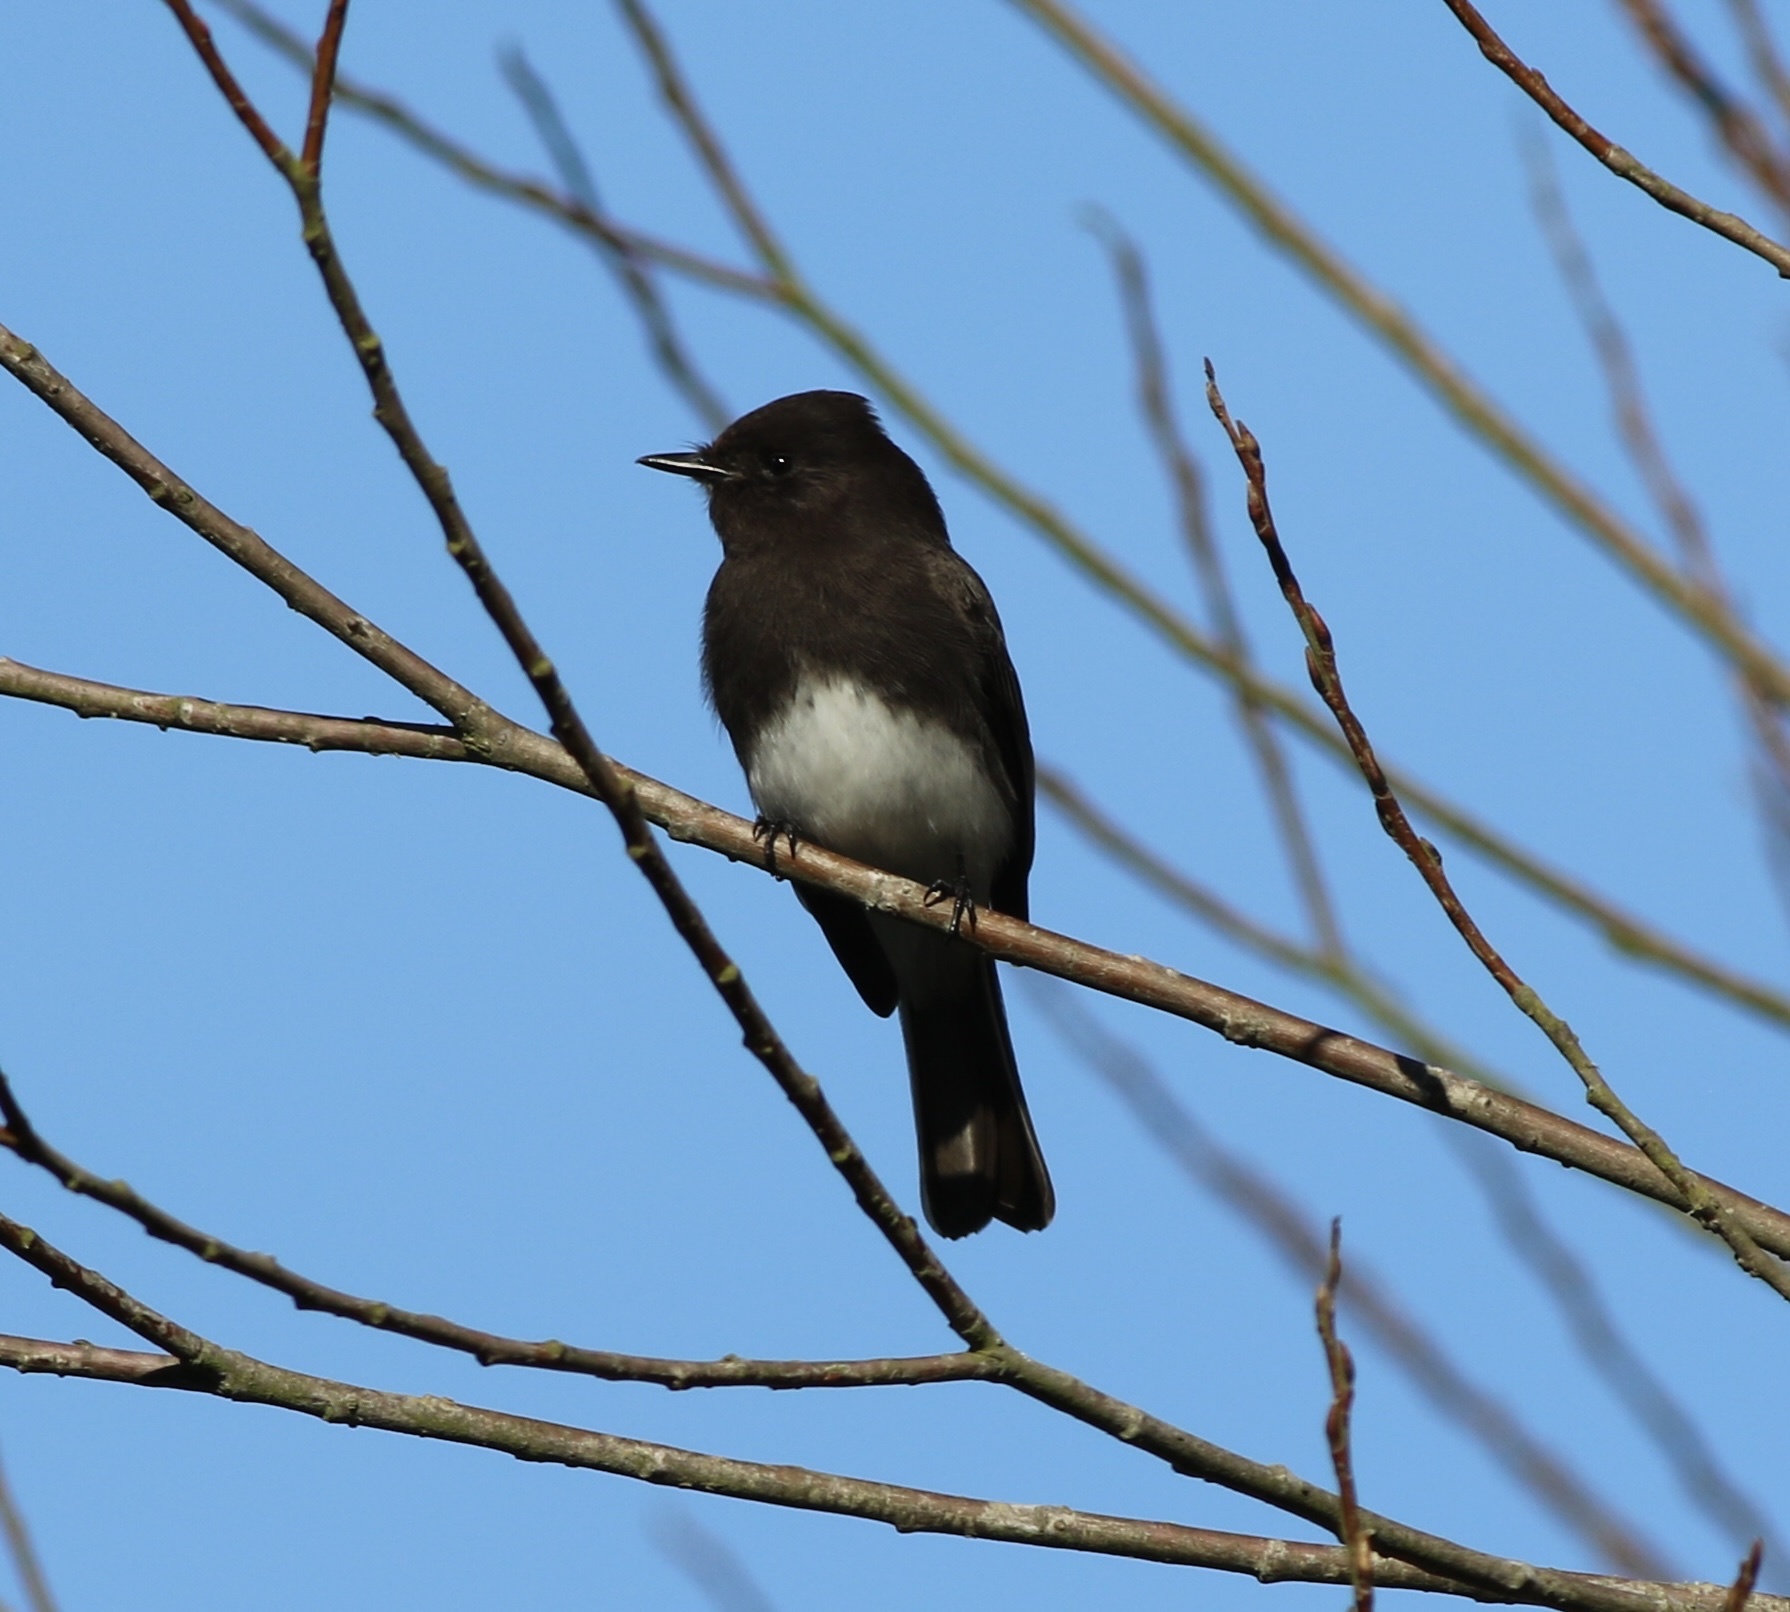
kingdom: Animalia
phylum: Chordata
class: Aves
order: Passeriformes
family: Tyrannidae
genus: Sayornis
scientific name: Sayornis nigricans
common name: Black phoebe
